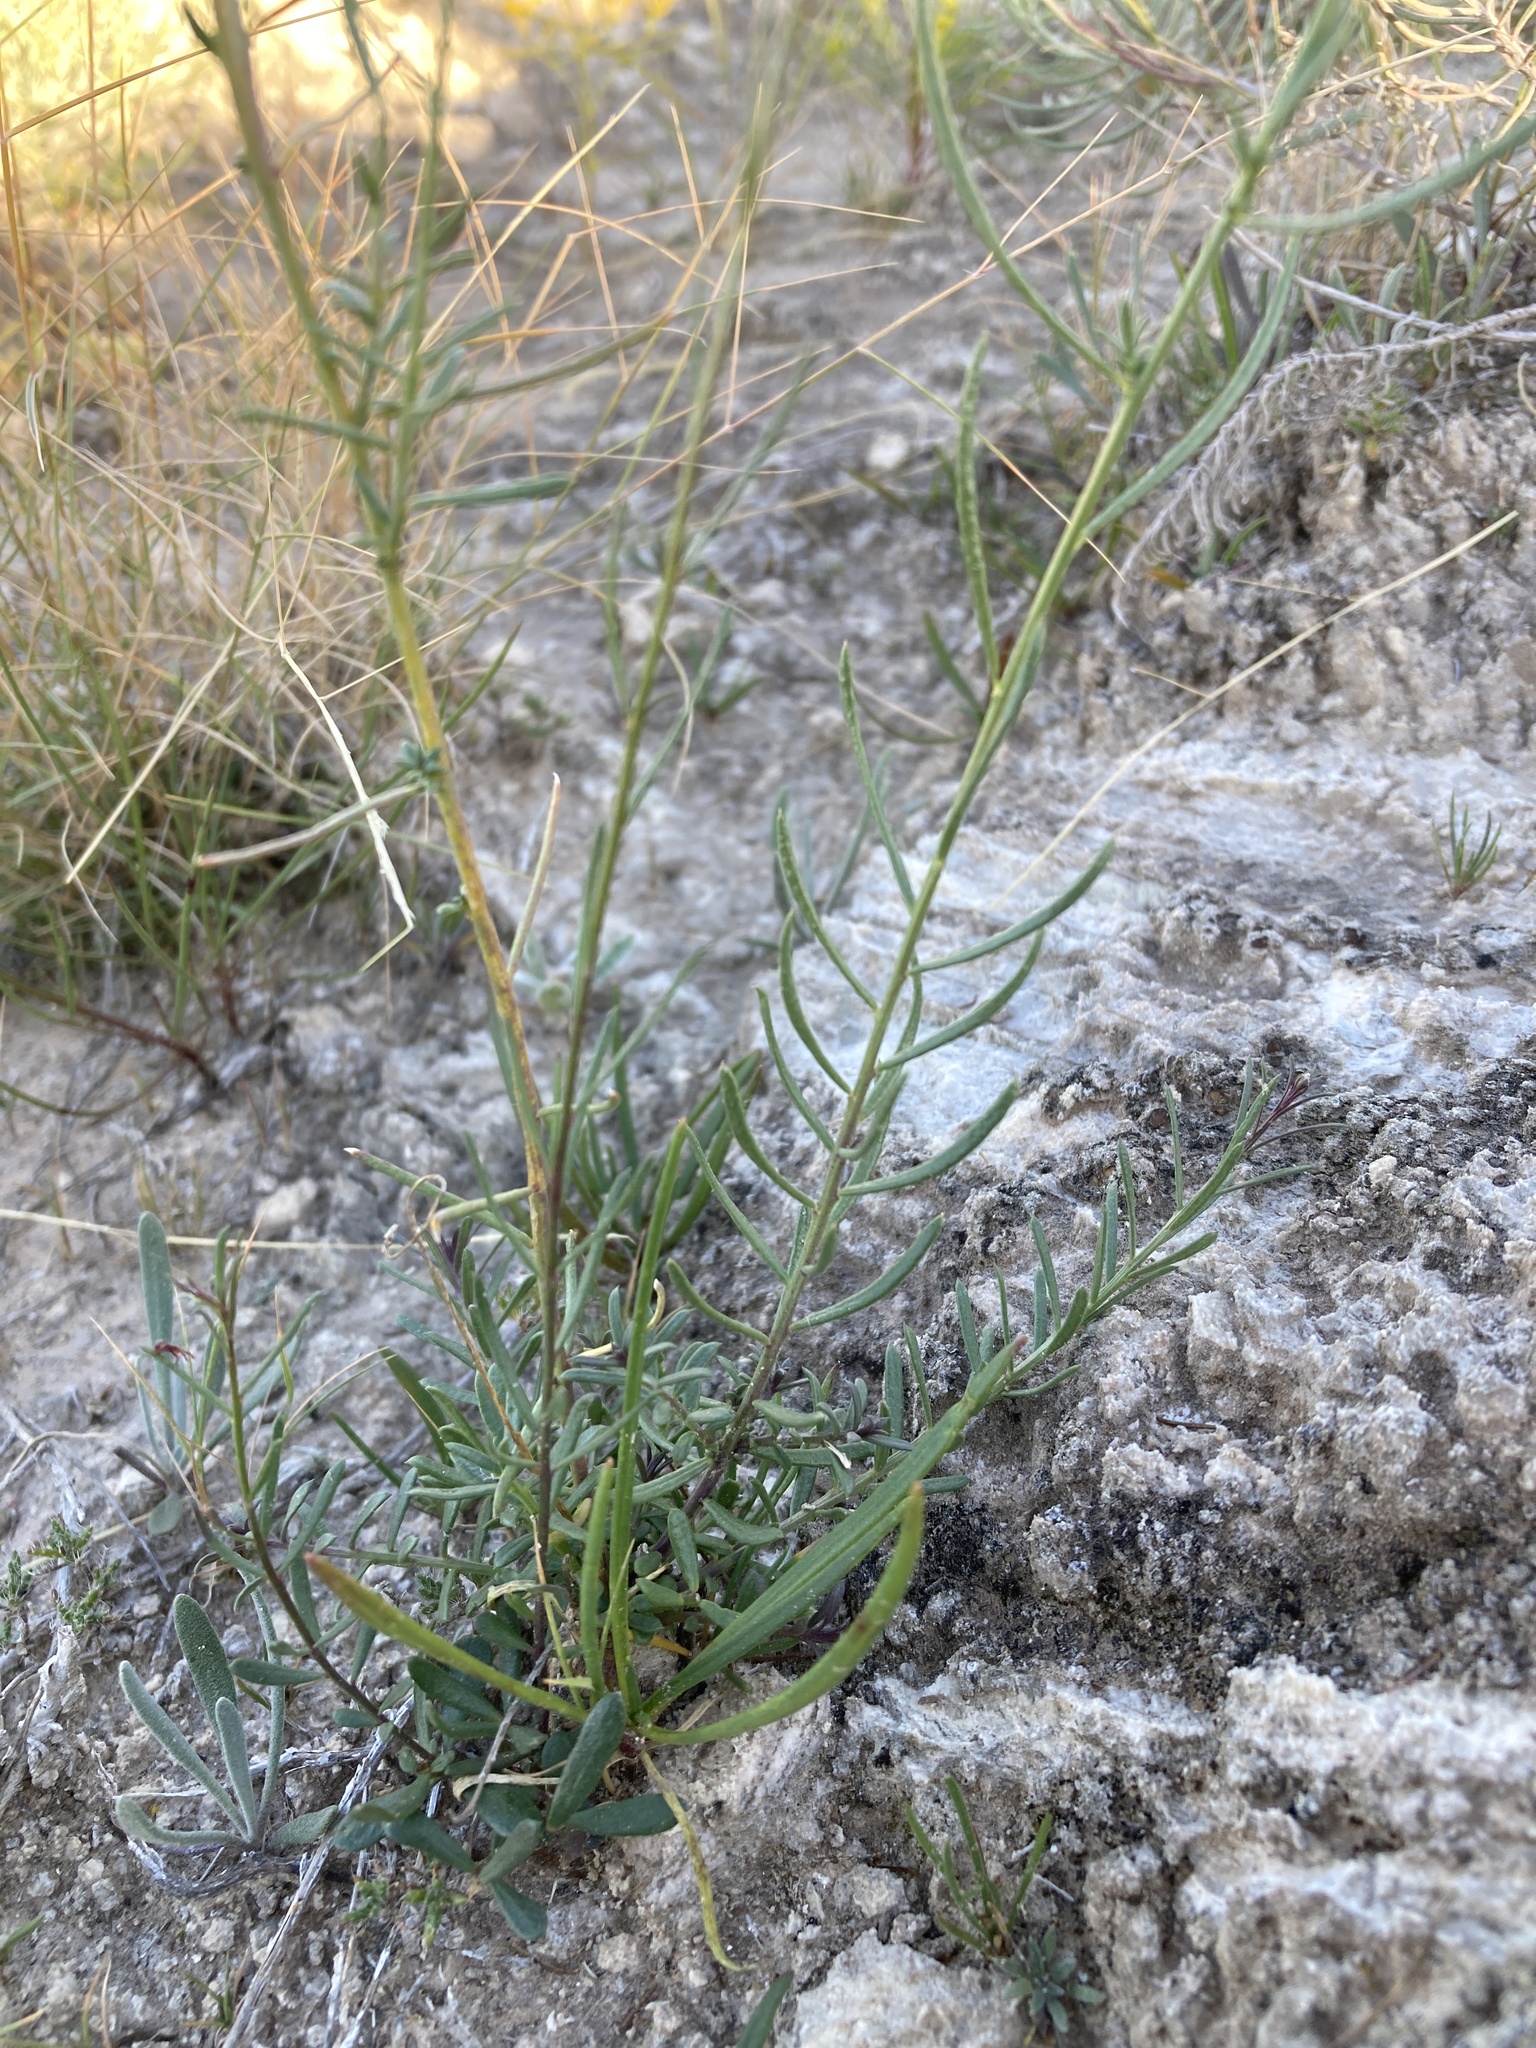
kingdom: Plantae
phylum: Tracheophyta
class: Magnoliopsida
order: Fabales
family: Polygalaceae
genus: Polygala
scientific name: Polygala alba
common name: White milkwort
